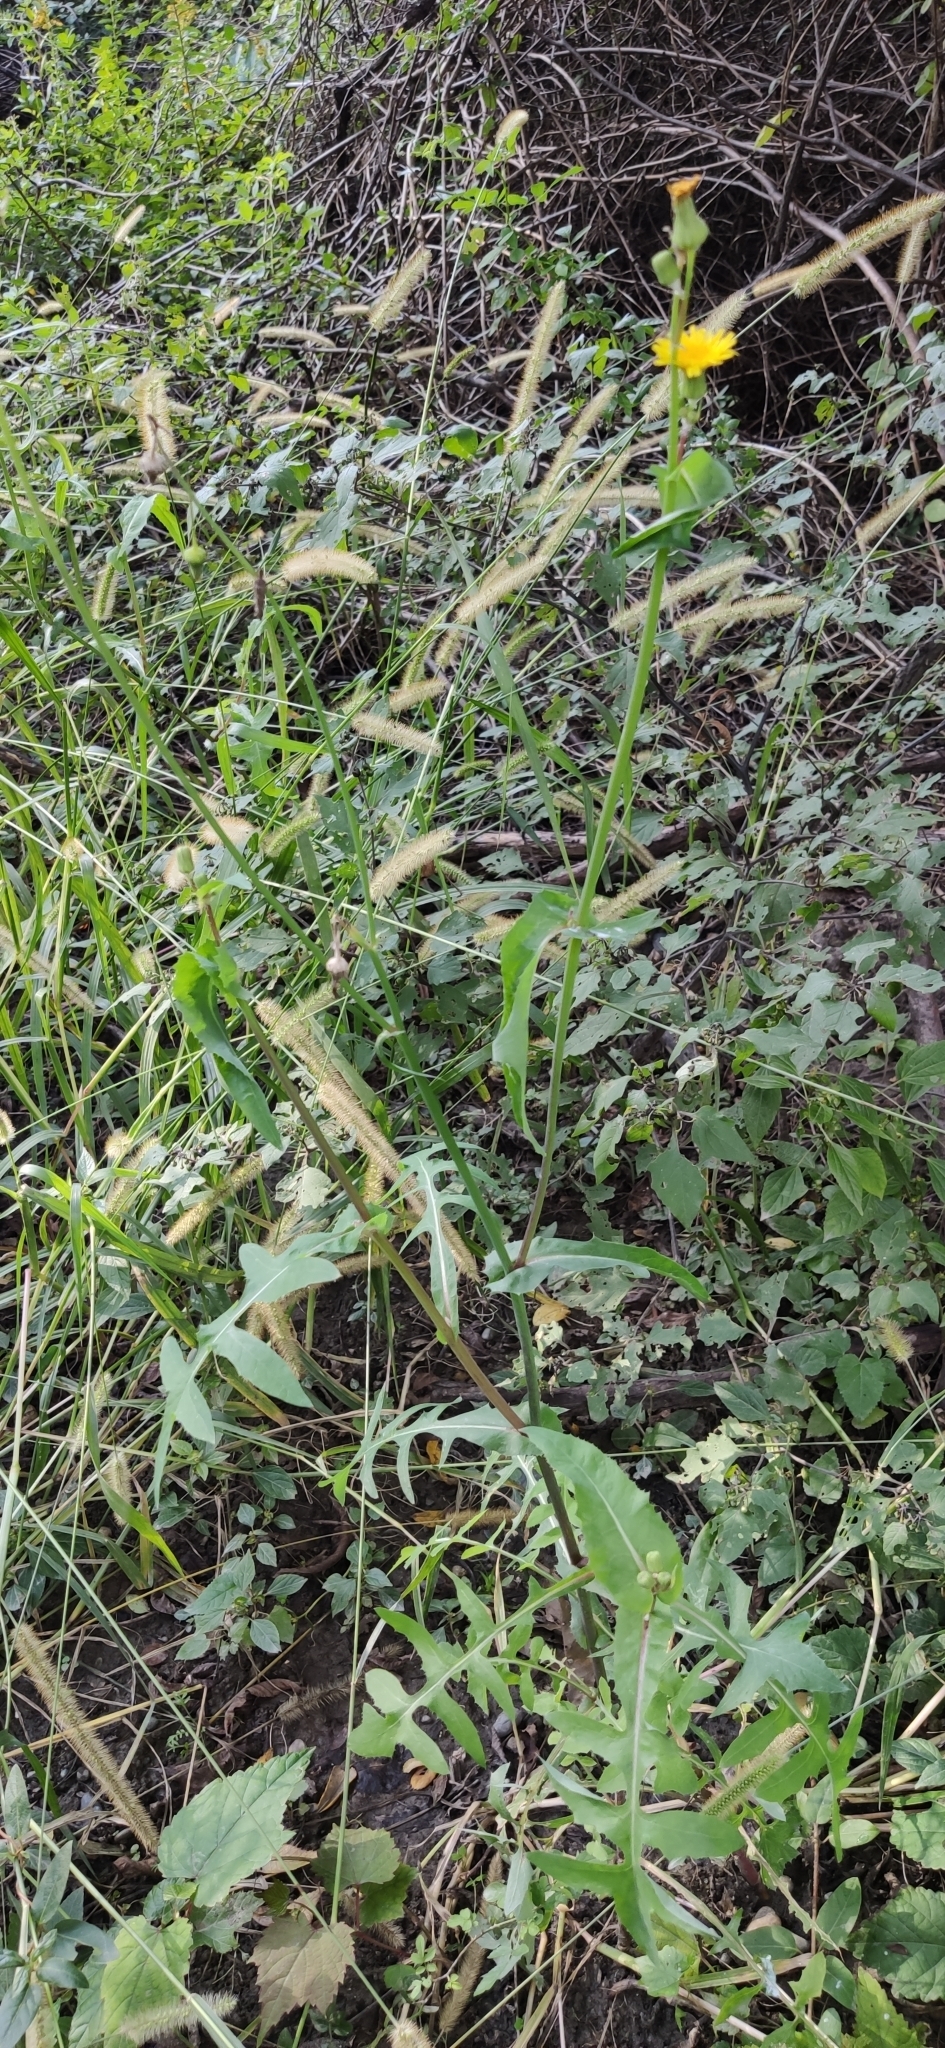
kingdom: Plantae
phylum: Tracheophyta
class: Magnoliopsida
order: Asterales
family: Asteraceae
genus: Sonchus
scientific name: Sonchus oleraceus
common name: Common sowthistle
